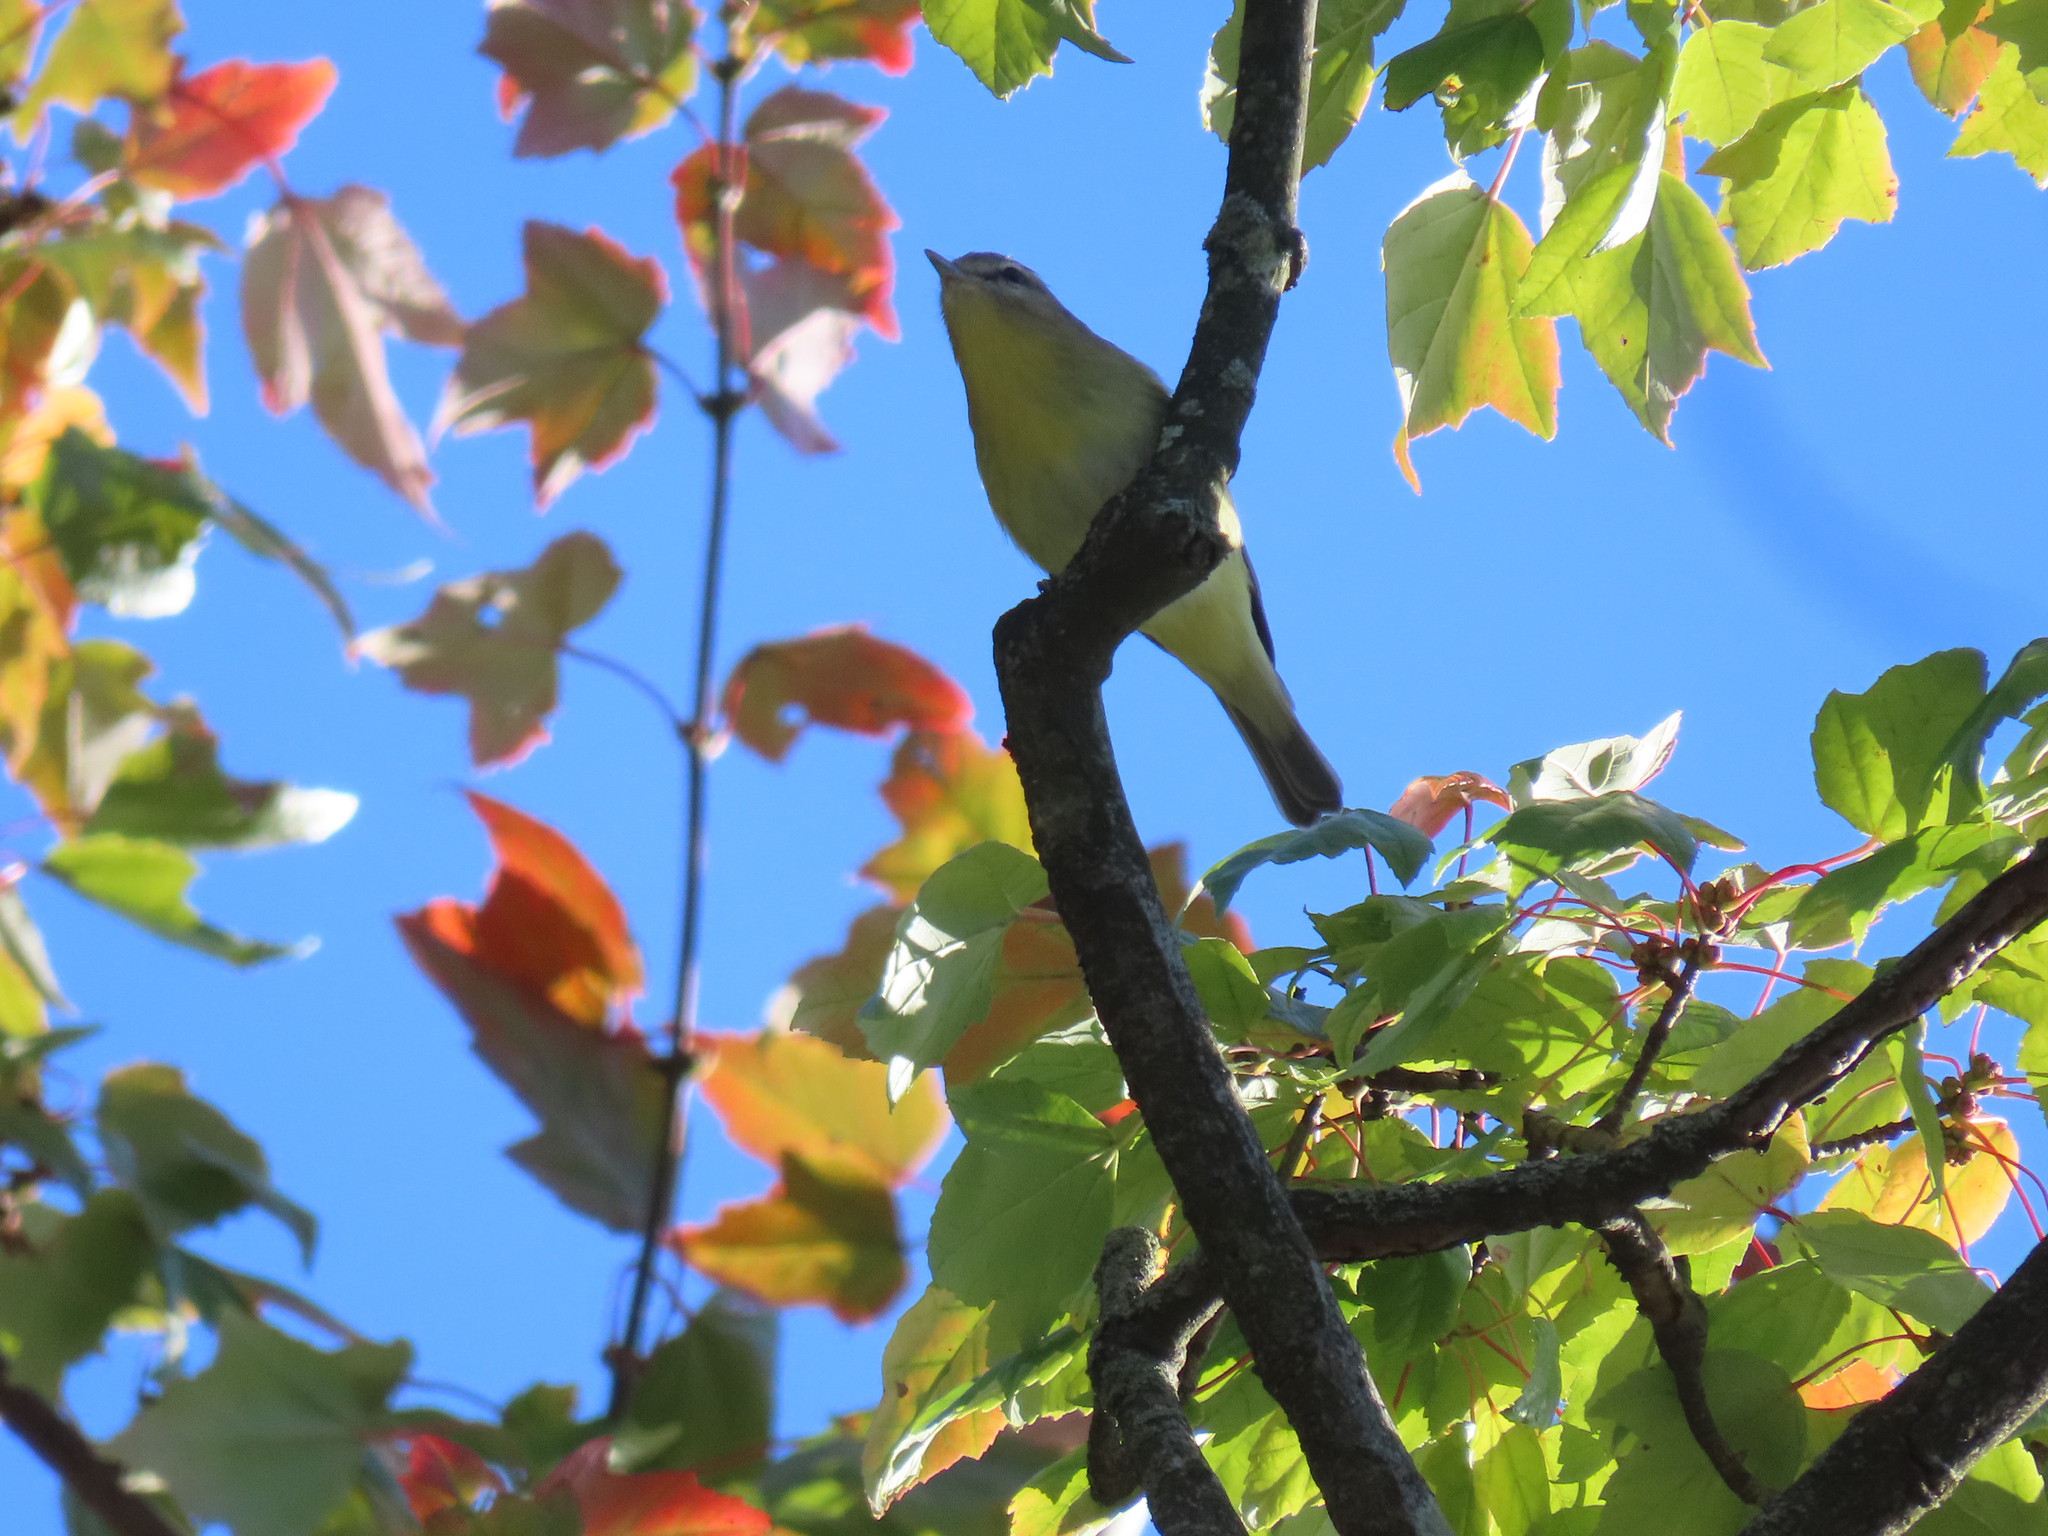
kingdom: Animalia
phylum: Chordata
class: Aves
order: Passeriformes
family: Vireonidae
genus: Vireo
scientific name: Vireo philadelphicus
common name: Philadelphia vireo
